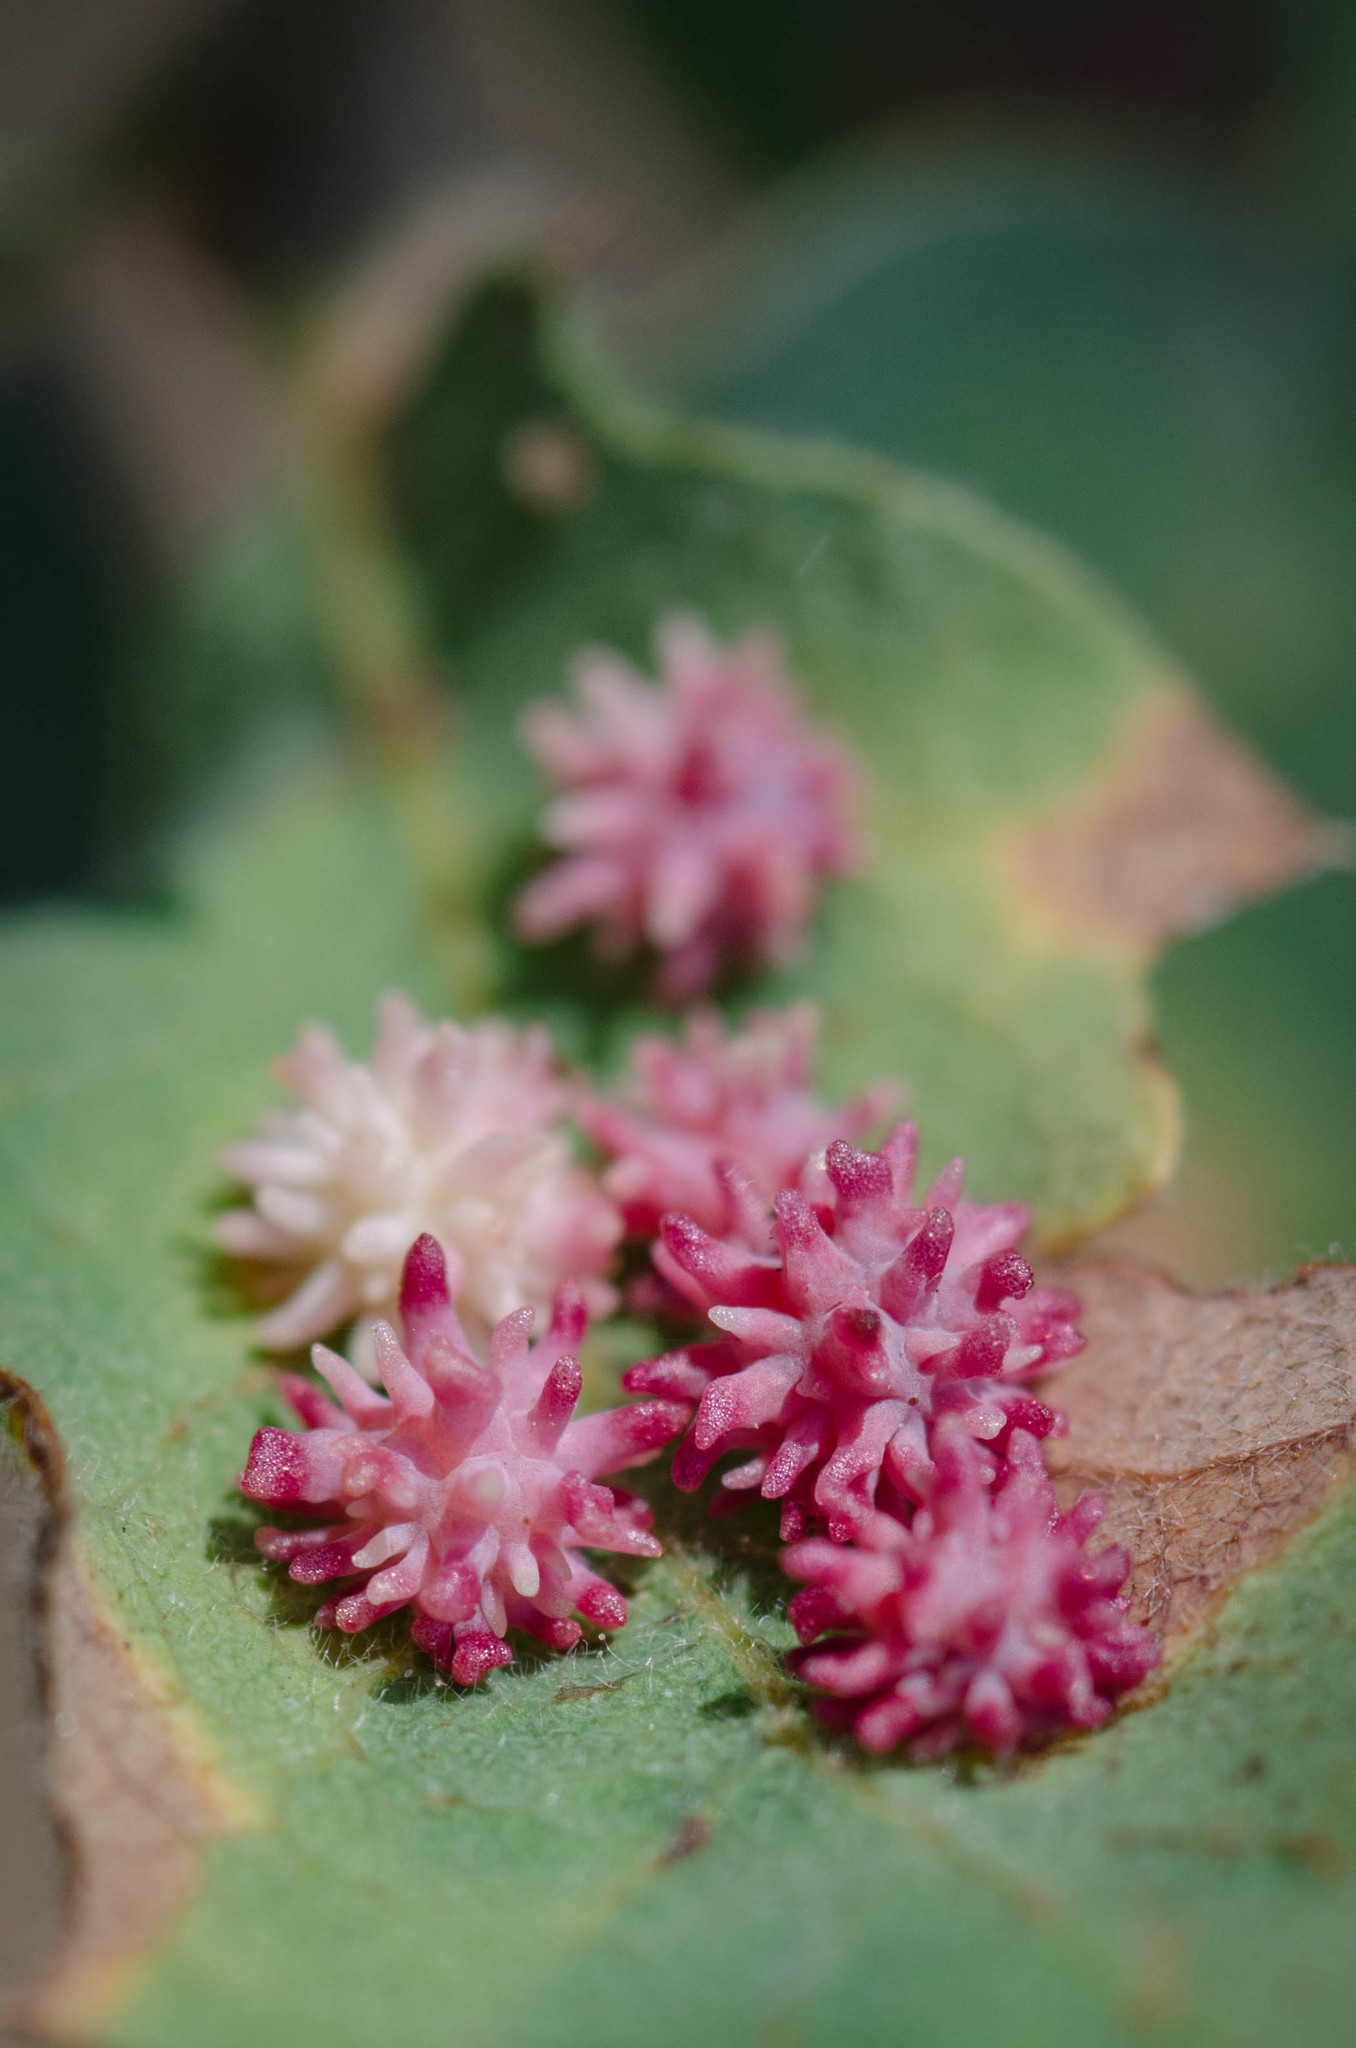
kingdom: Animalia
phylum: Arthropoda
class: Insecta
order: Hymenoptera
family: Cynipidae
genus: Cynips
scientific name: Cynips
